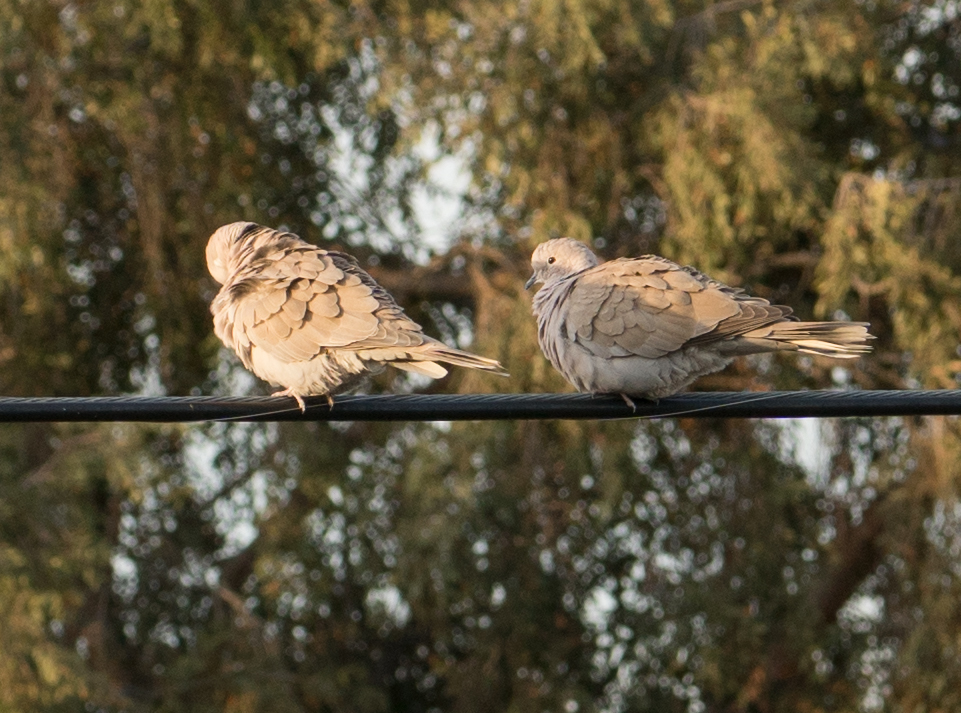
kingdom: Animalia
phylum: Chordata
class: Aves
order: Columbiformes
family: Columbidae
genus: Zenaida
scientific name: Zenaida macroura
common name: Mourning dove
